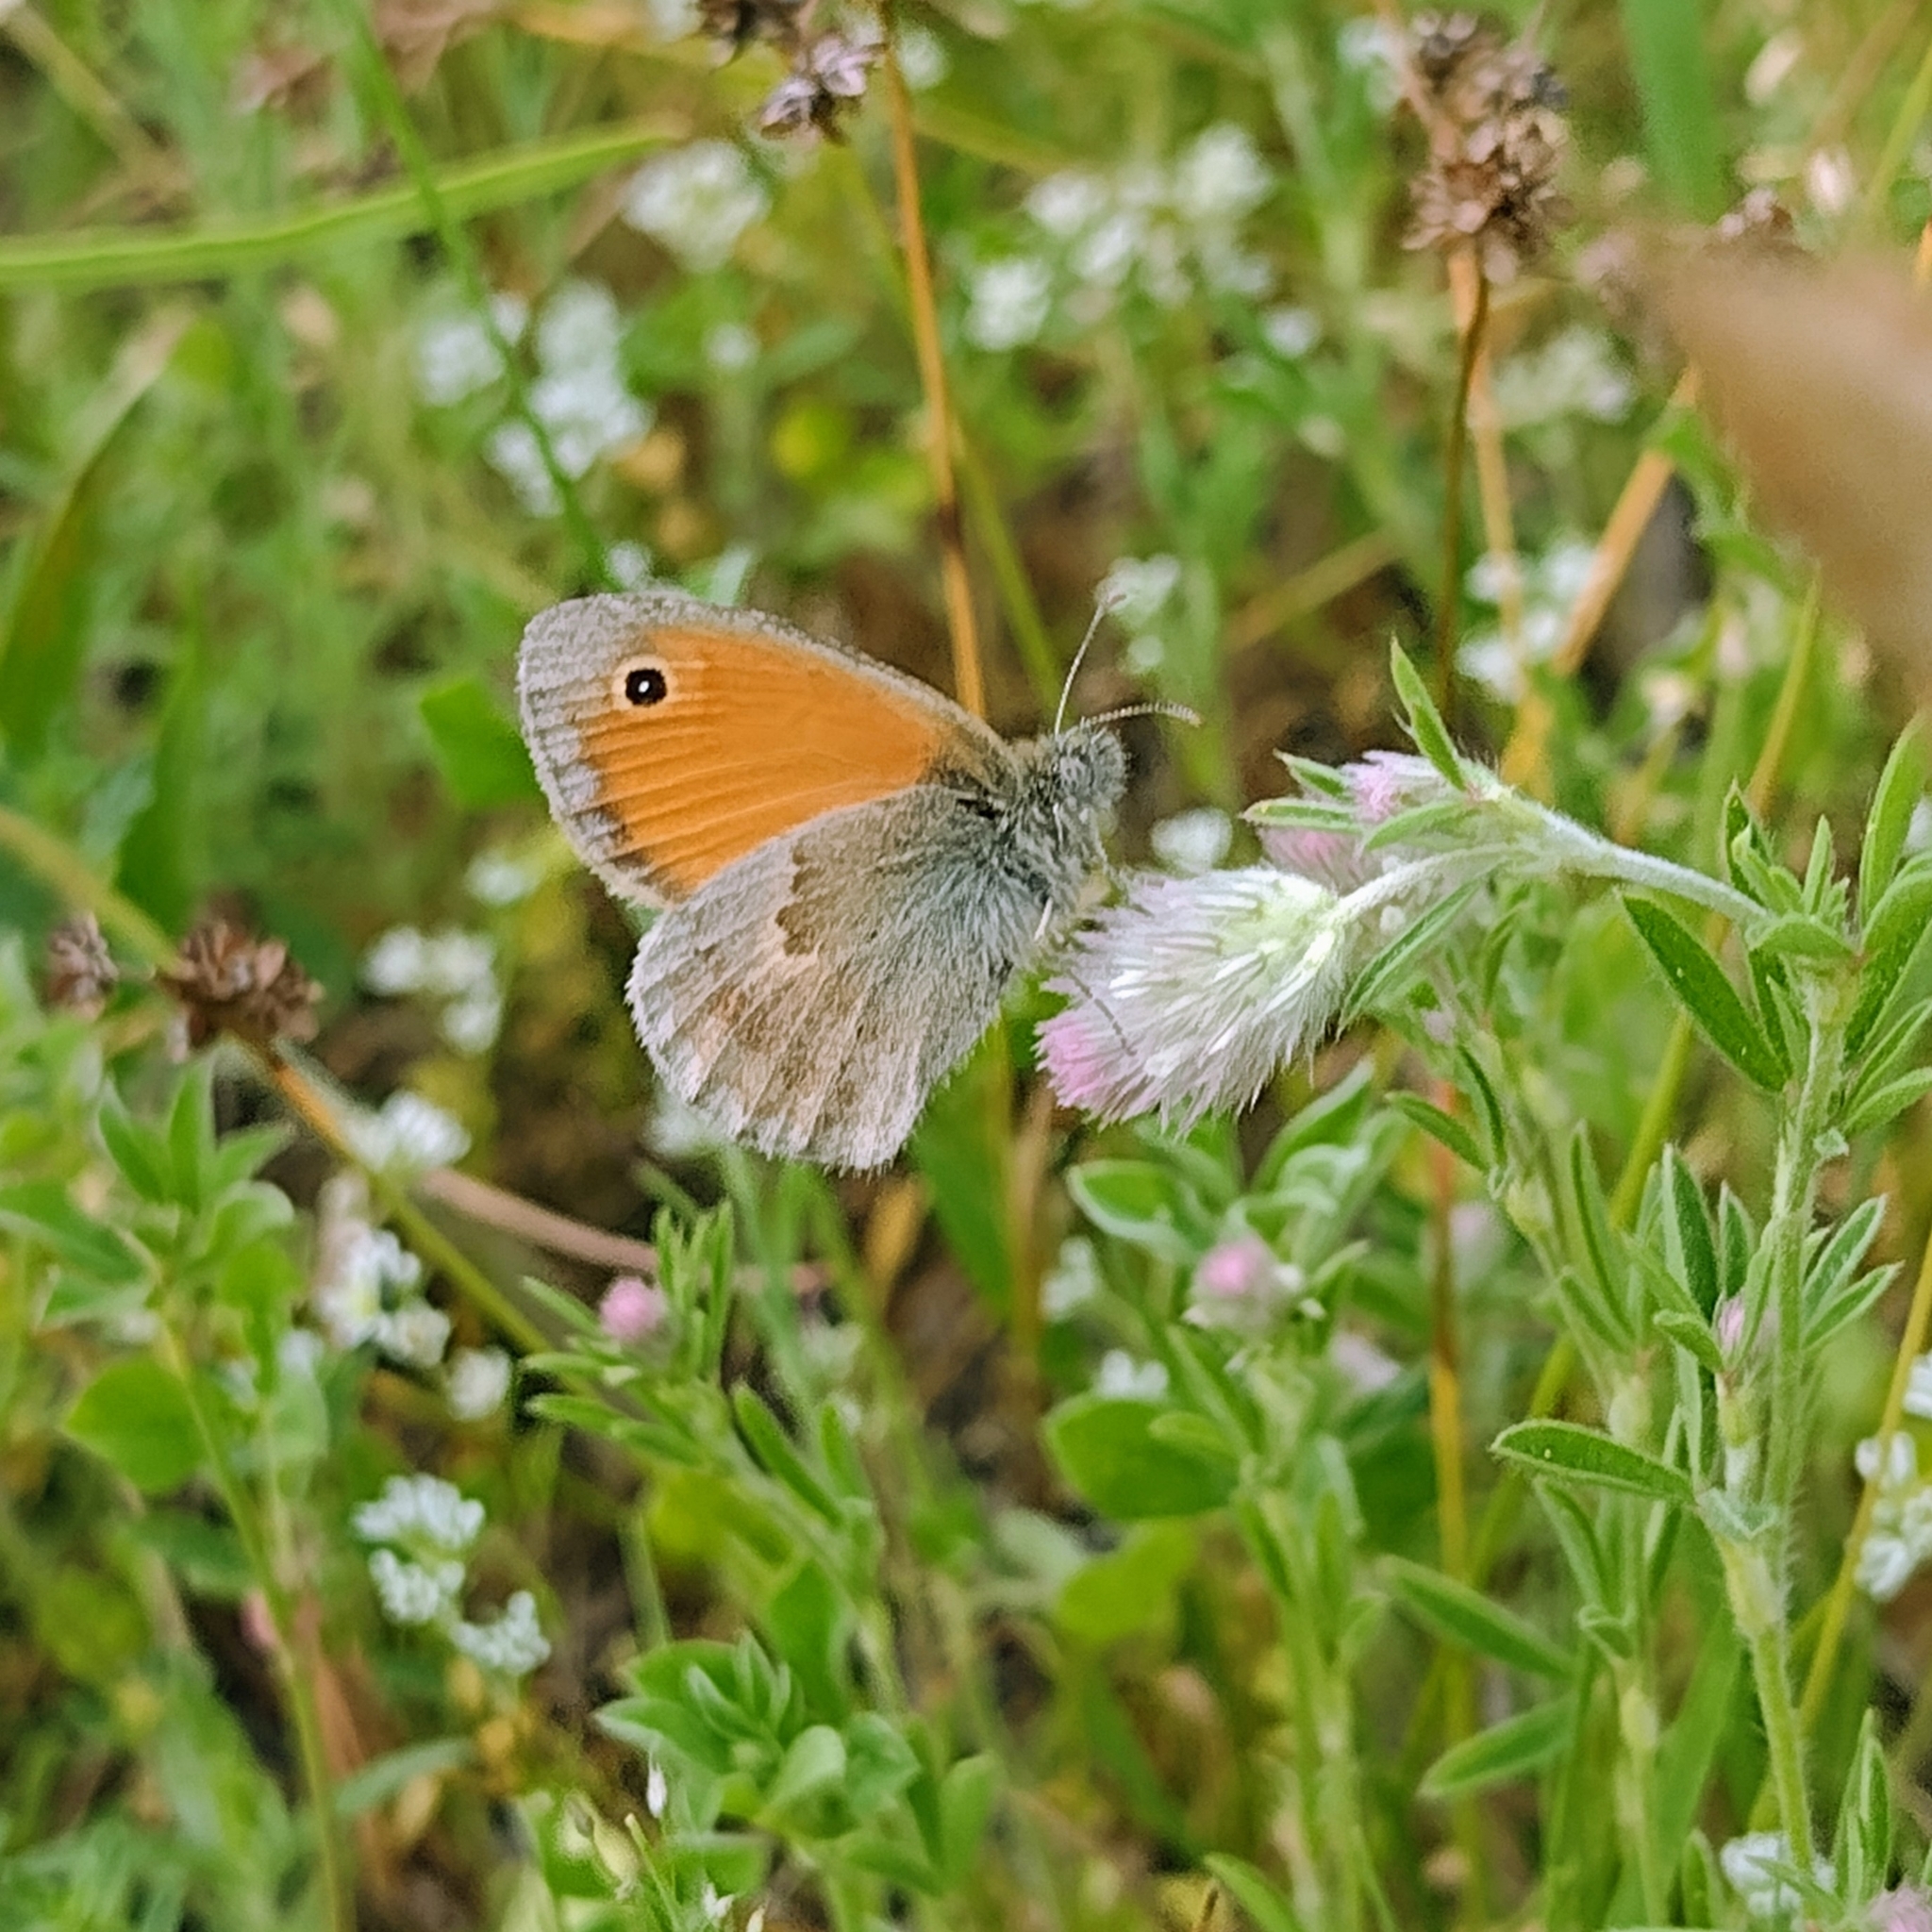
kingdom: Animalia
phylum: Arthropoda
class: Insecta
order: Lepidoptera
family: Nymphalidae
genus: Coenonympha
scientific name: Coenonympha pamphilus
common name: Small heath
